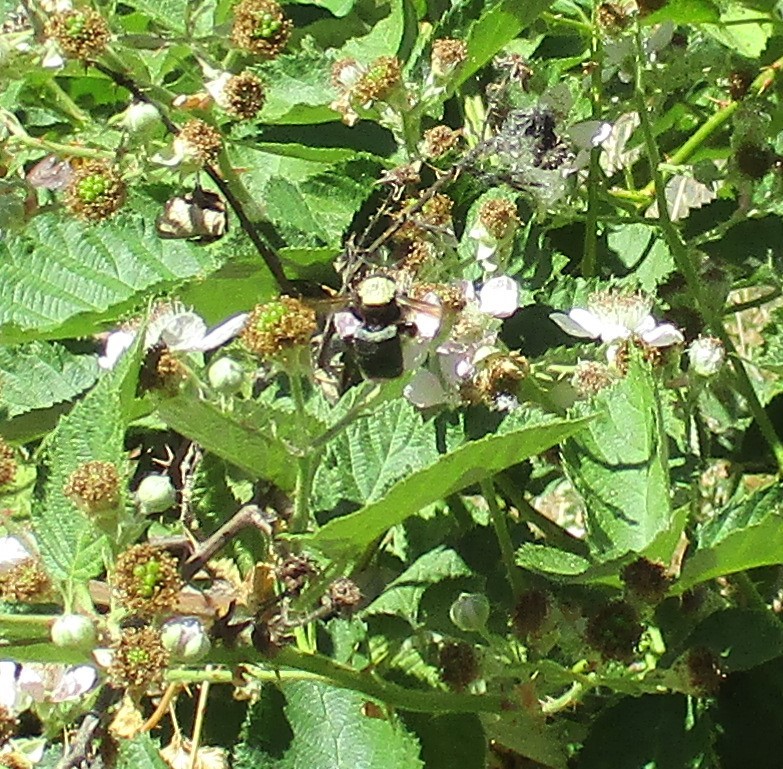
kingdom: Animalia
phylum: Arthropoda
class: Insecta
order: Hymenoptera
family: Apidae
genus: Xylocopa
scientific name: Xylocopa californica
